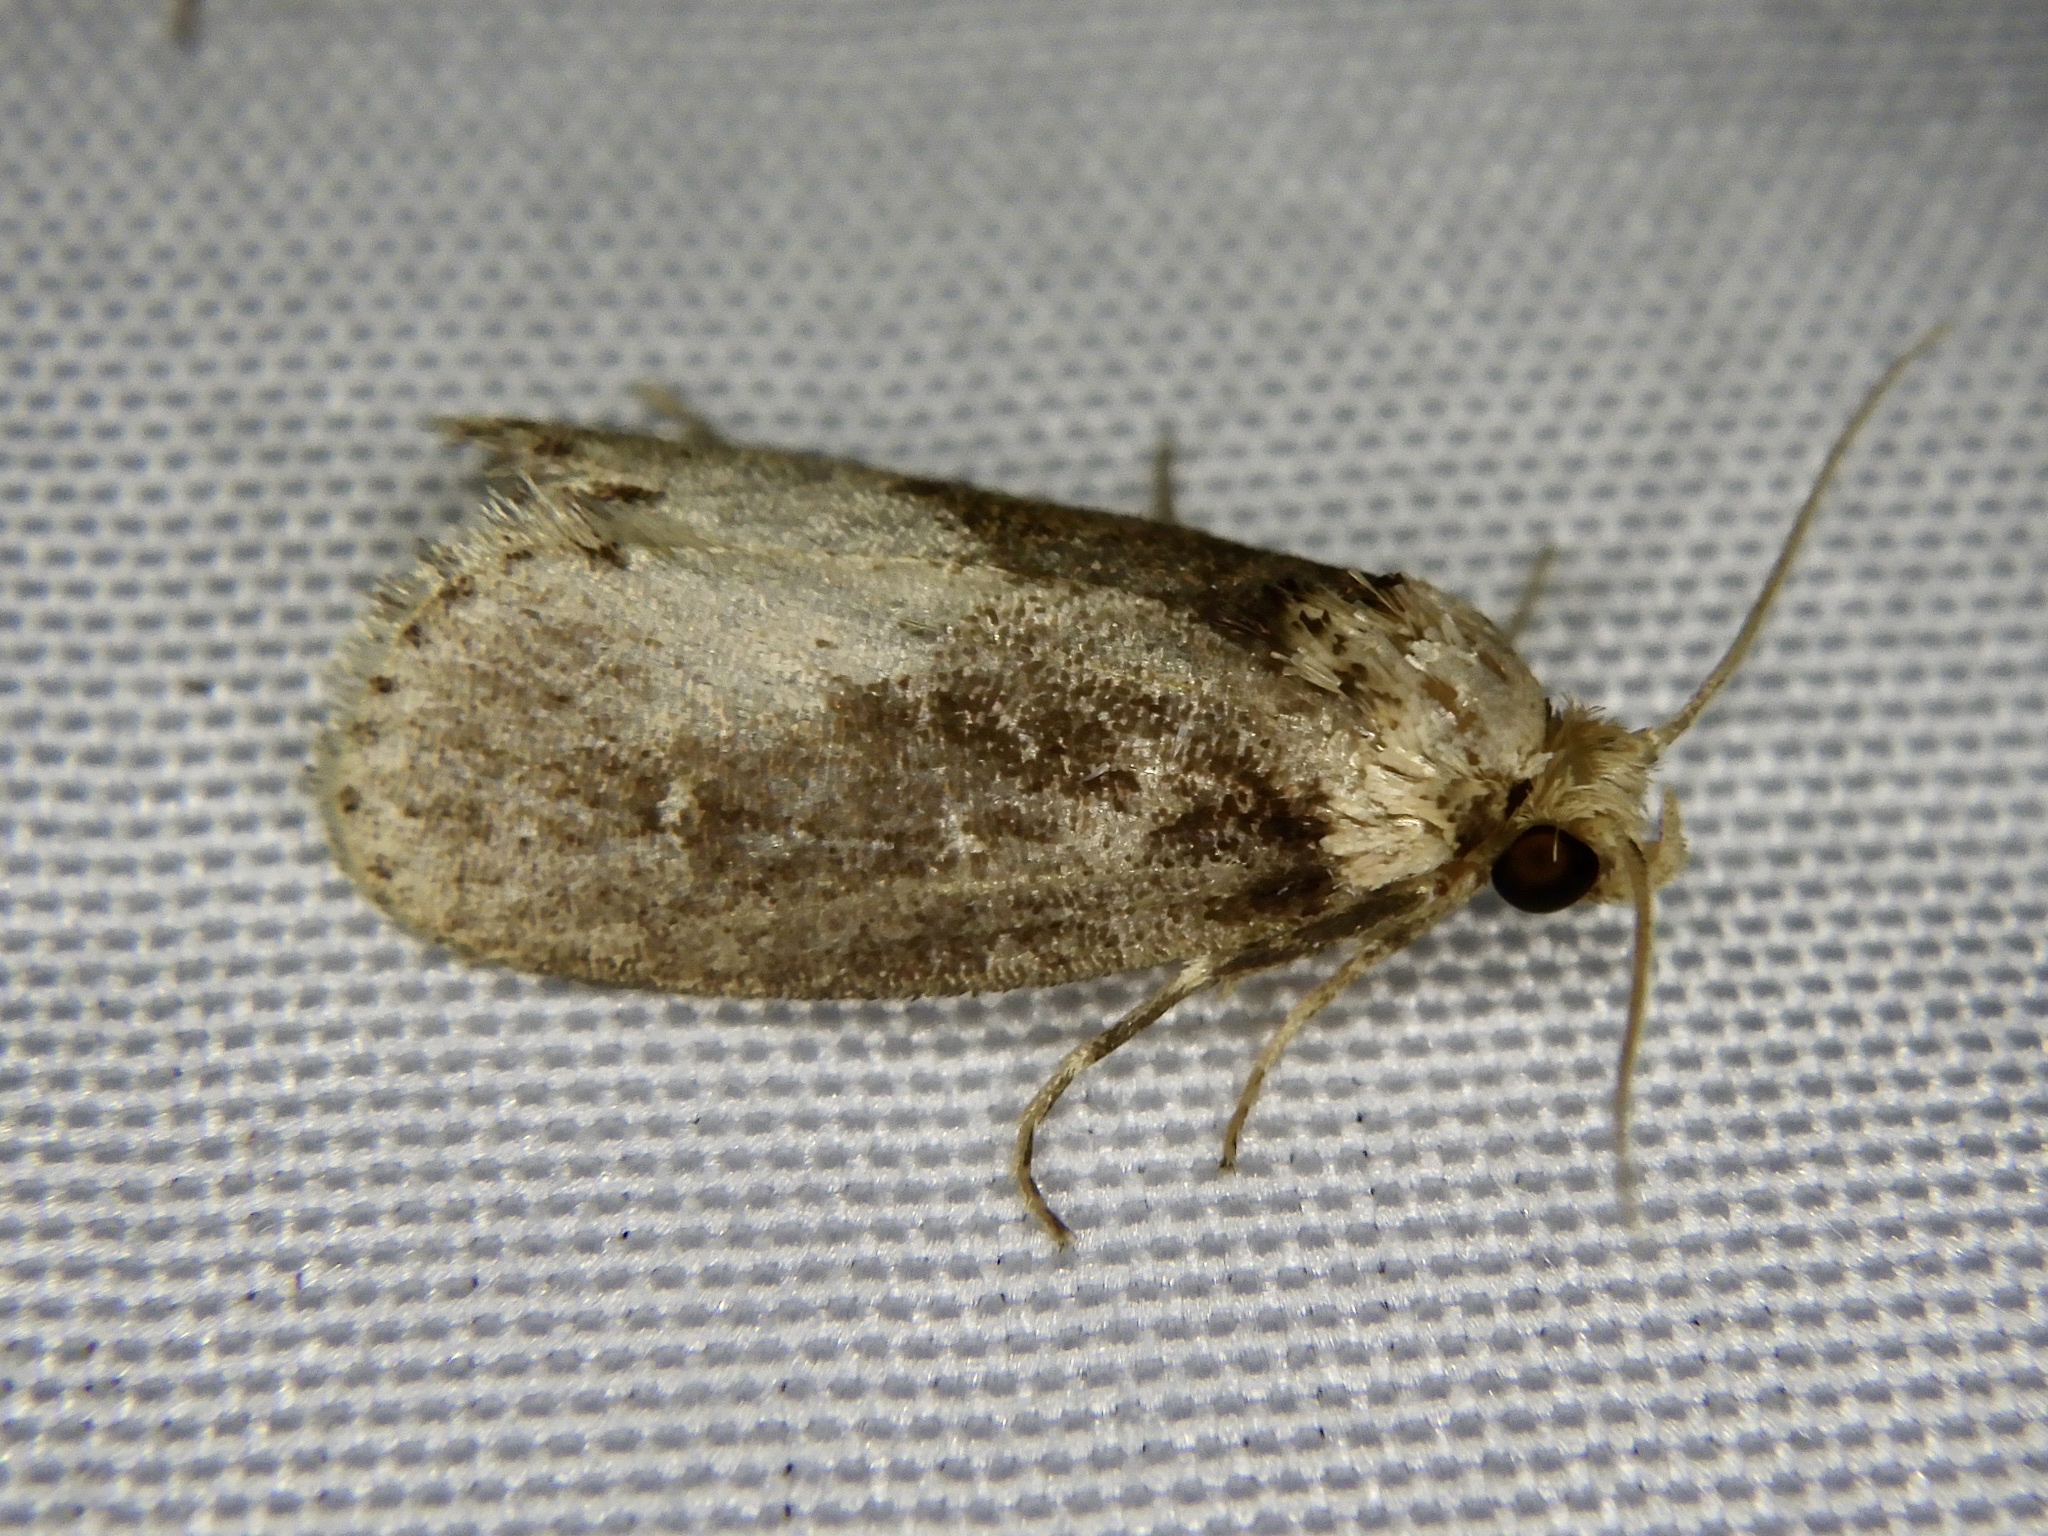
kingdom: Animalia
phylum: Arthropoda
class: Insecta
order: Lepidoptera
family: Limacodidae
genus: Naryciodes
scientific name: Naryciodes posticalis
